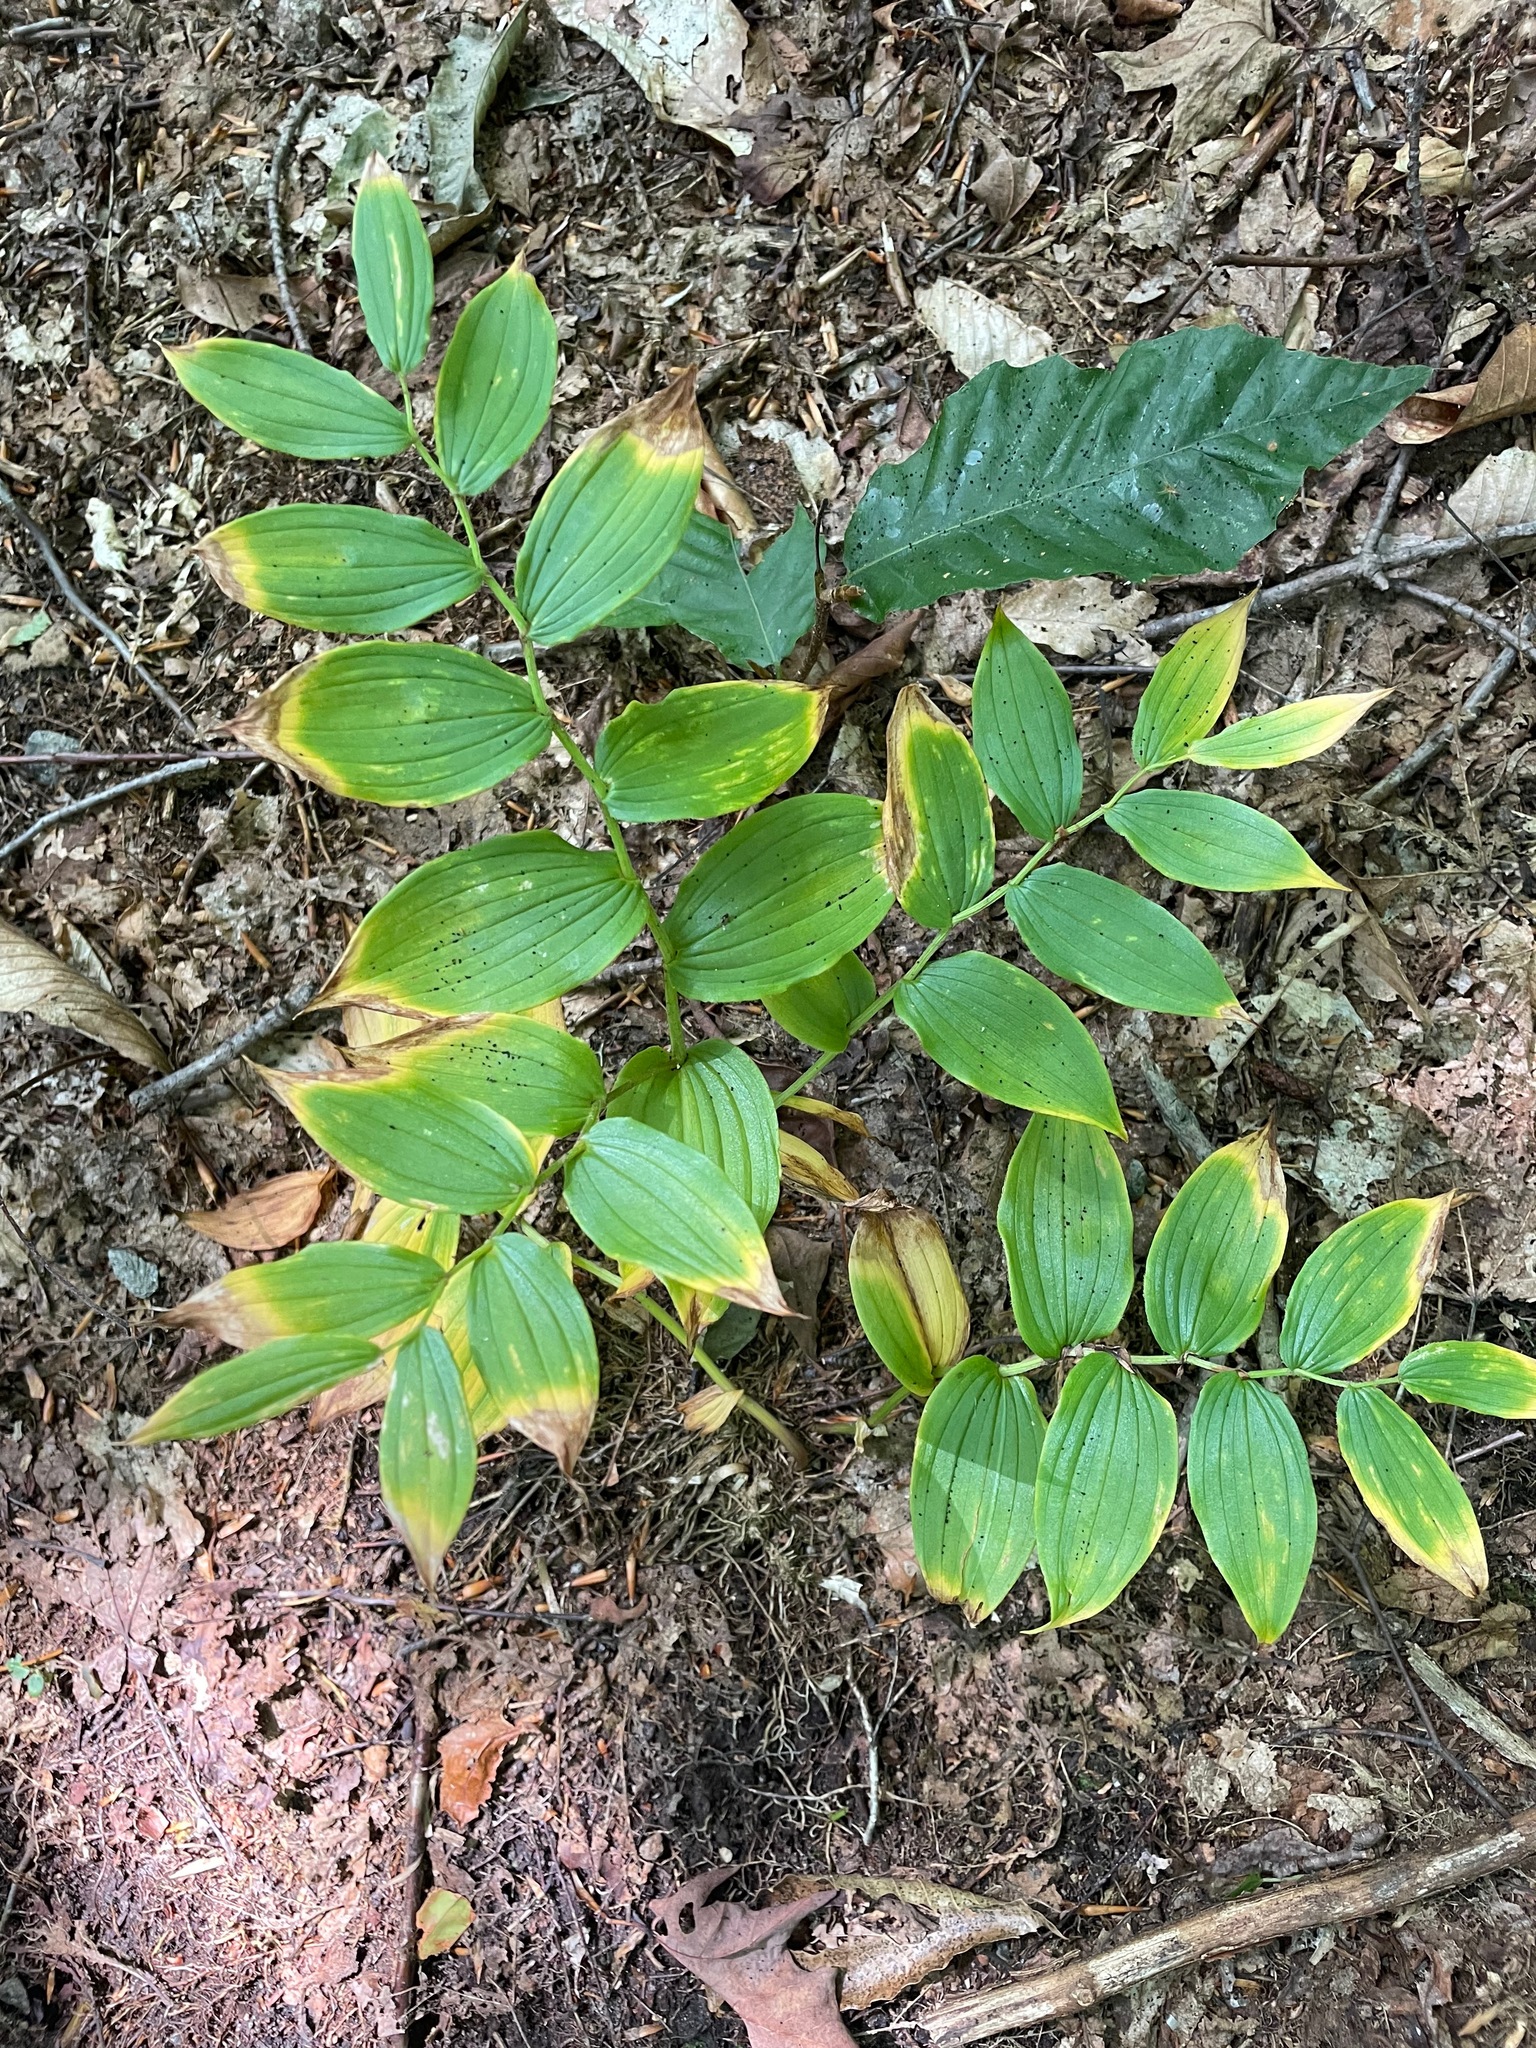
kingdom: Plantae
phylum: Tracheophyta
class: Liliopsida
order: Liliales
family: Liliaceae
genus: Streptopus
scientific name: Streptopus lanceolatus
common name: Rose mandarin
